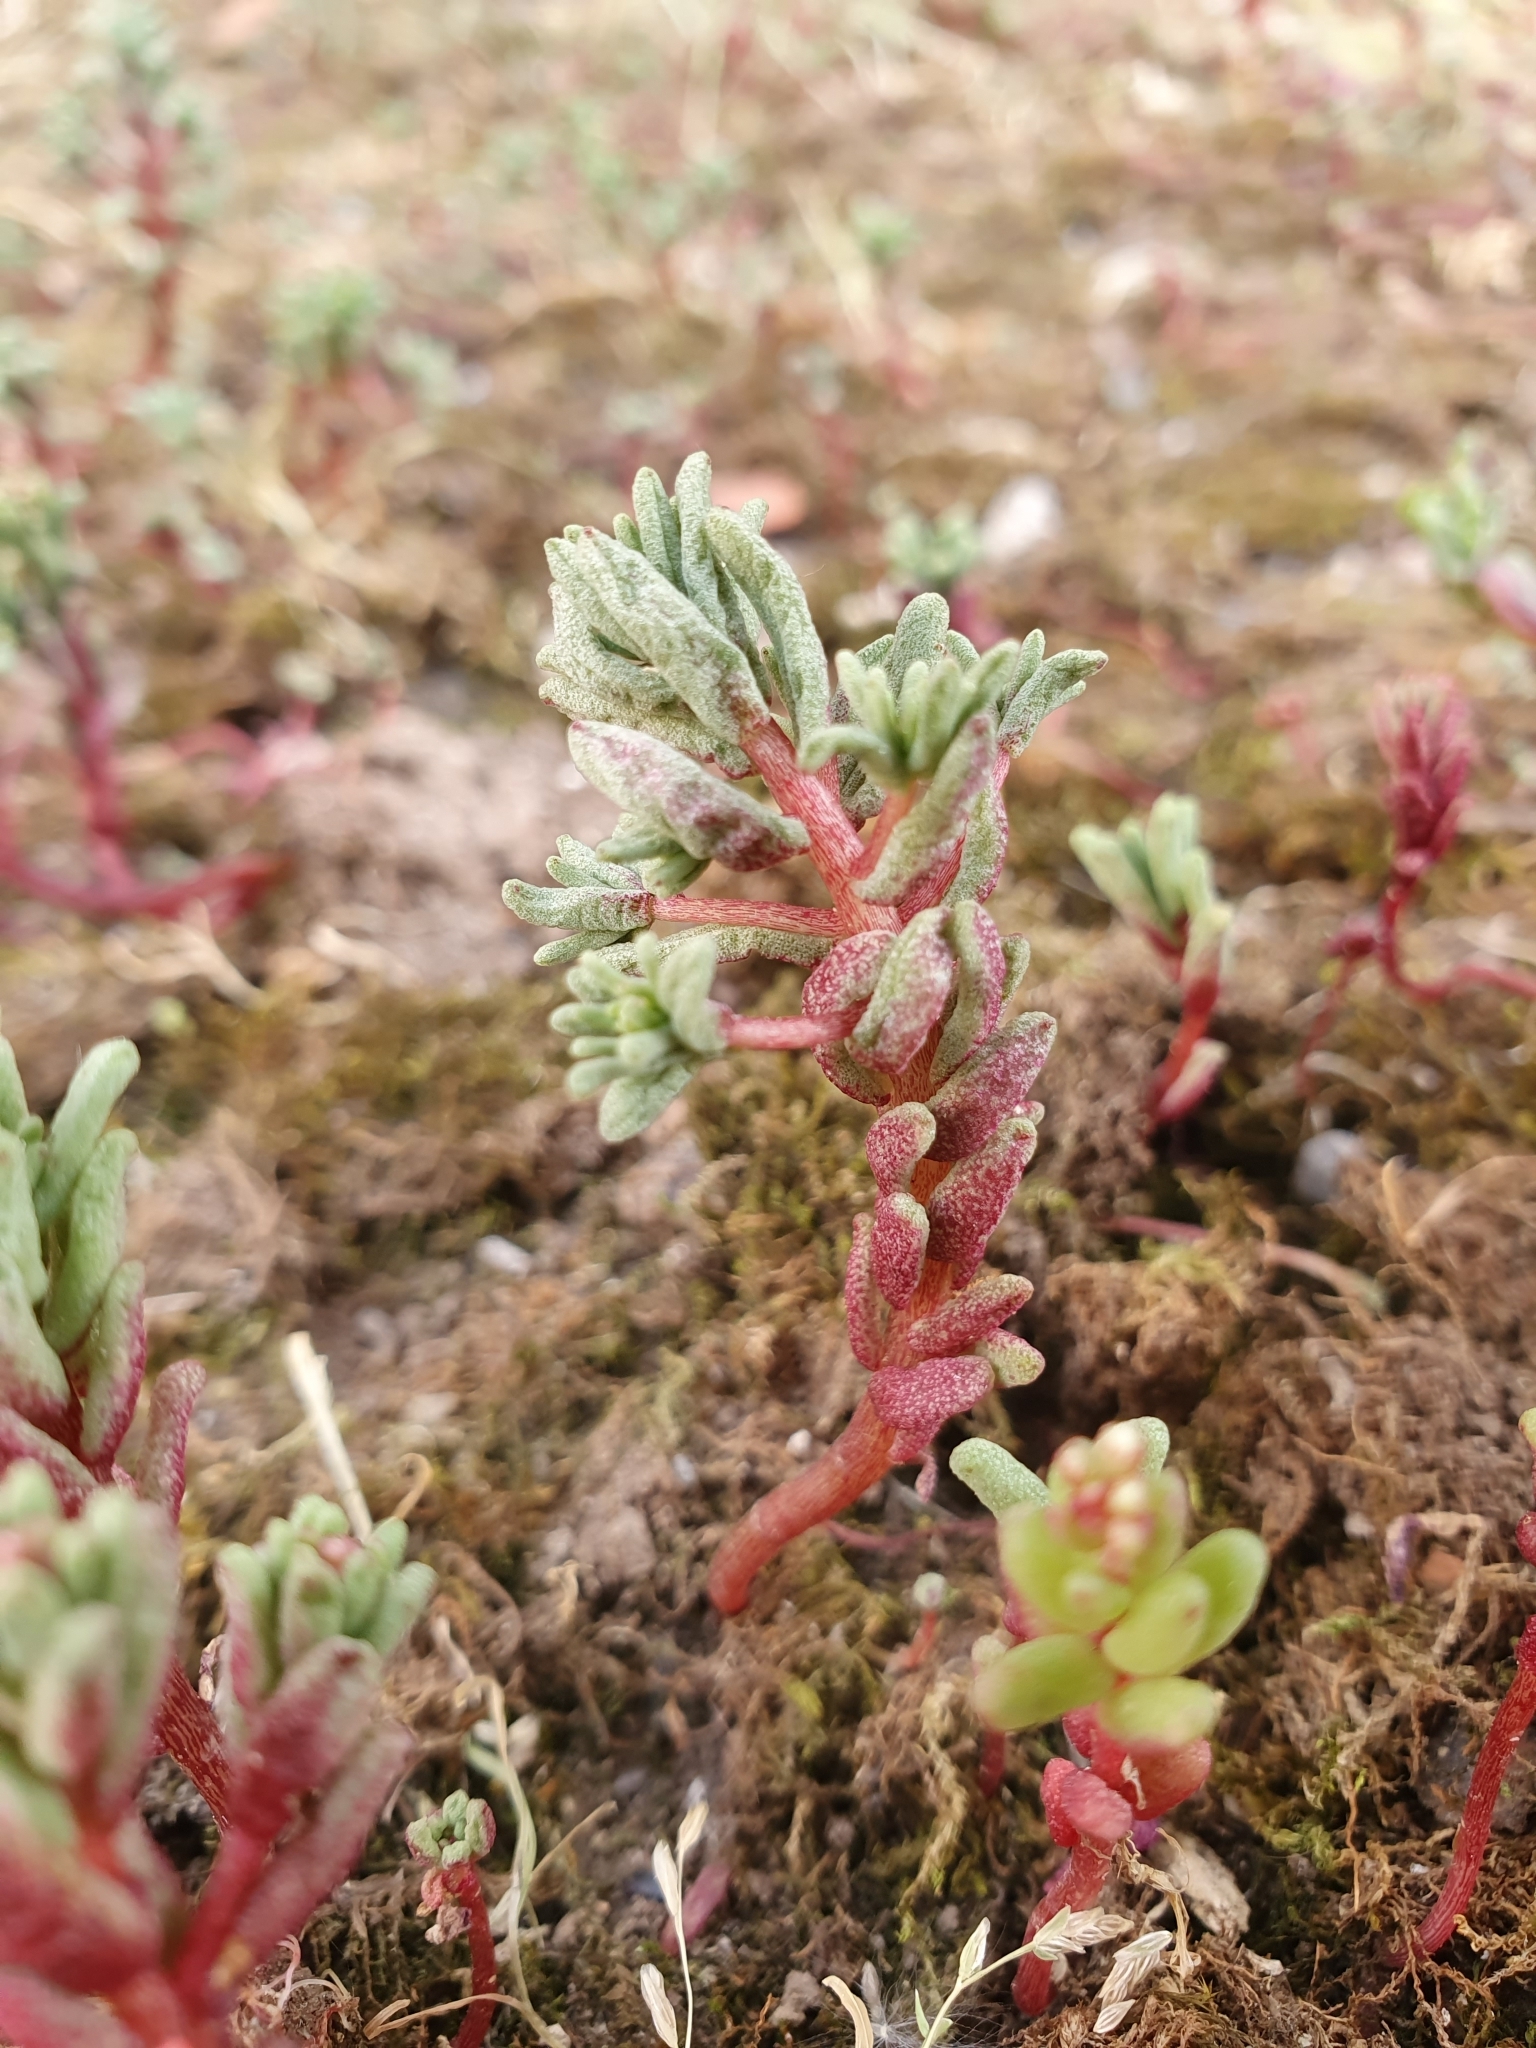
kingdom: Plantae
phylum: Tracheophyta
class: Magnoliopsida
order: Saxifragales
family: Crassulaceae
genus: Sedum
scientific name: Sedum caeruleum
